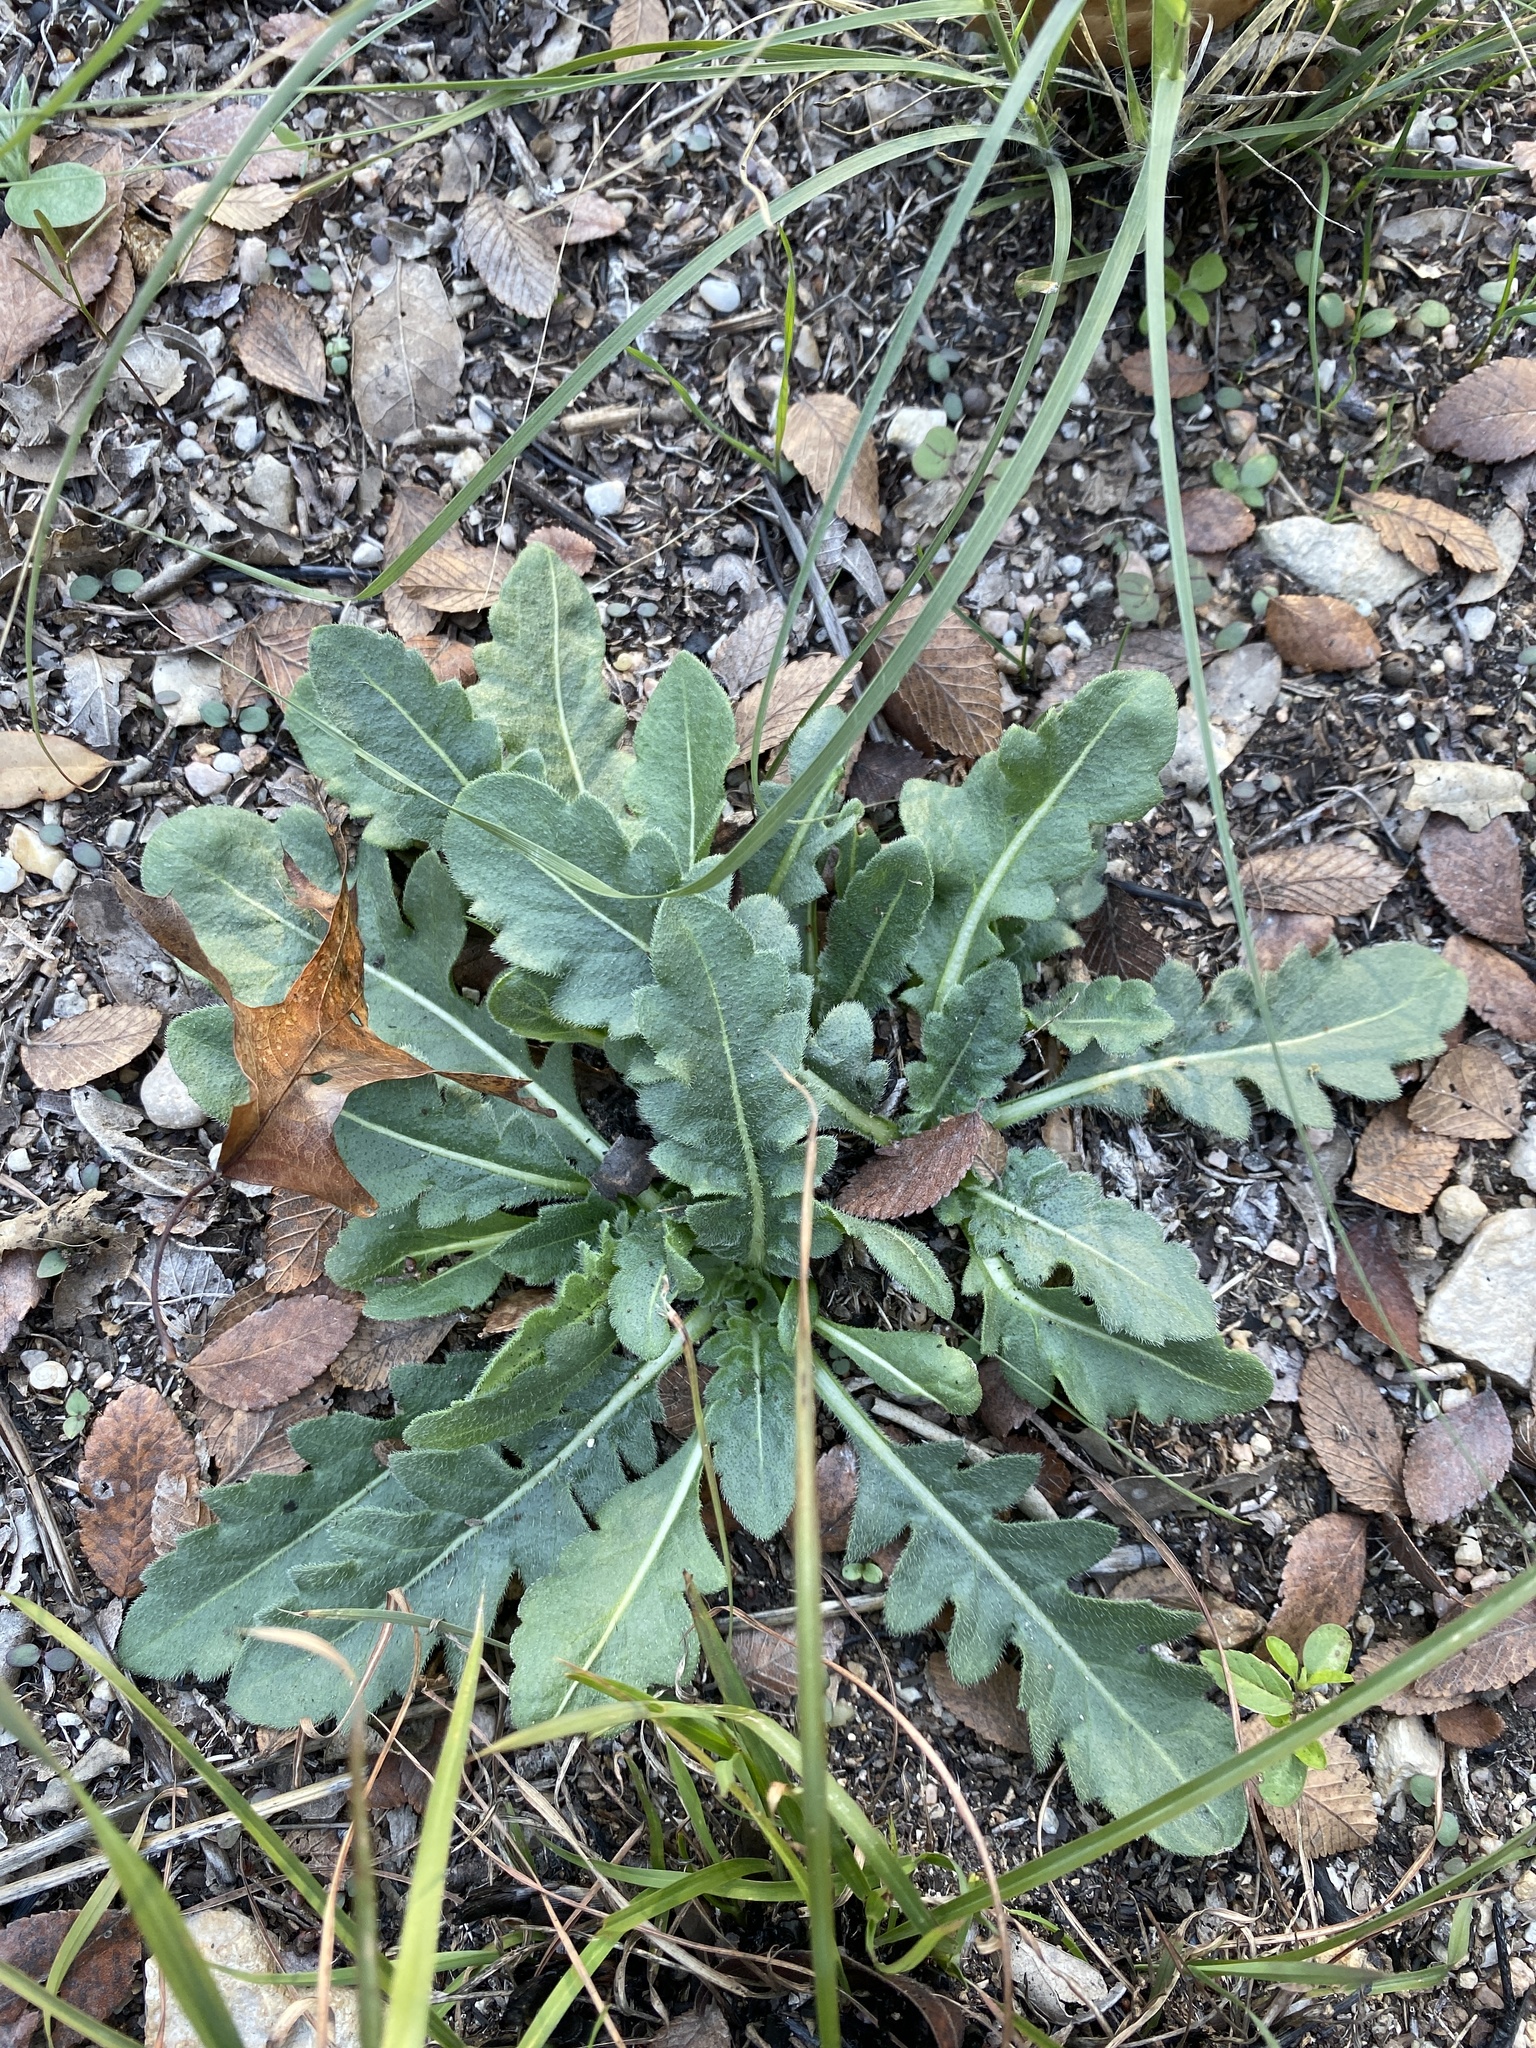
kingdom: Plantae
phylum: Tracheophyta
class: Magnoliopsida
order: Asterales
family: Asteraceae
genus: Engelmannia
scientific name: Engelmannia peristenia
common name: Engelmann's daisy
